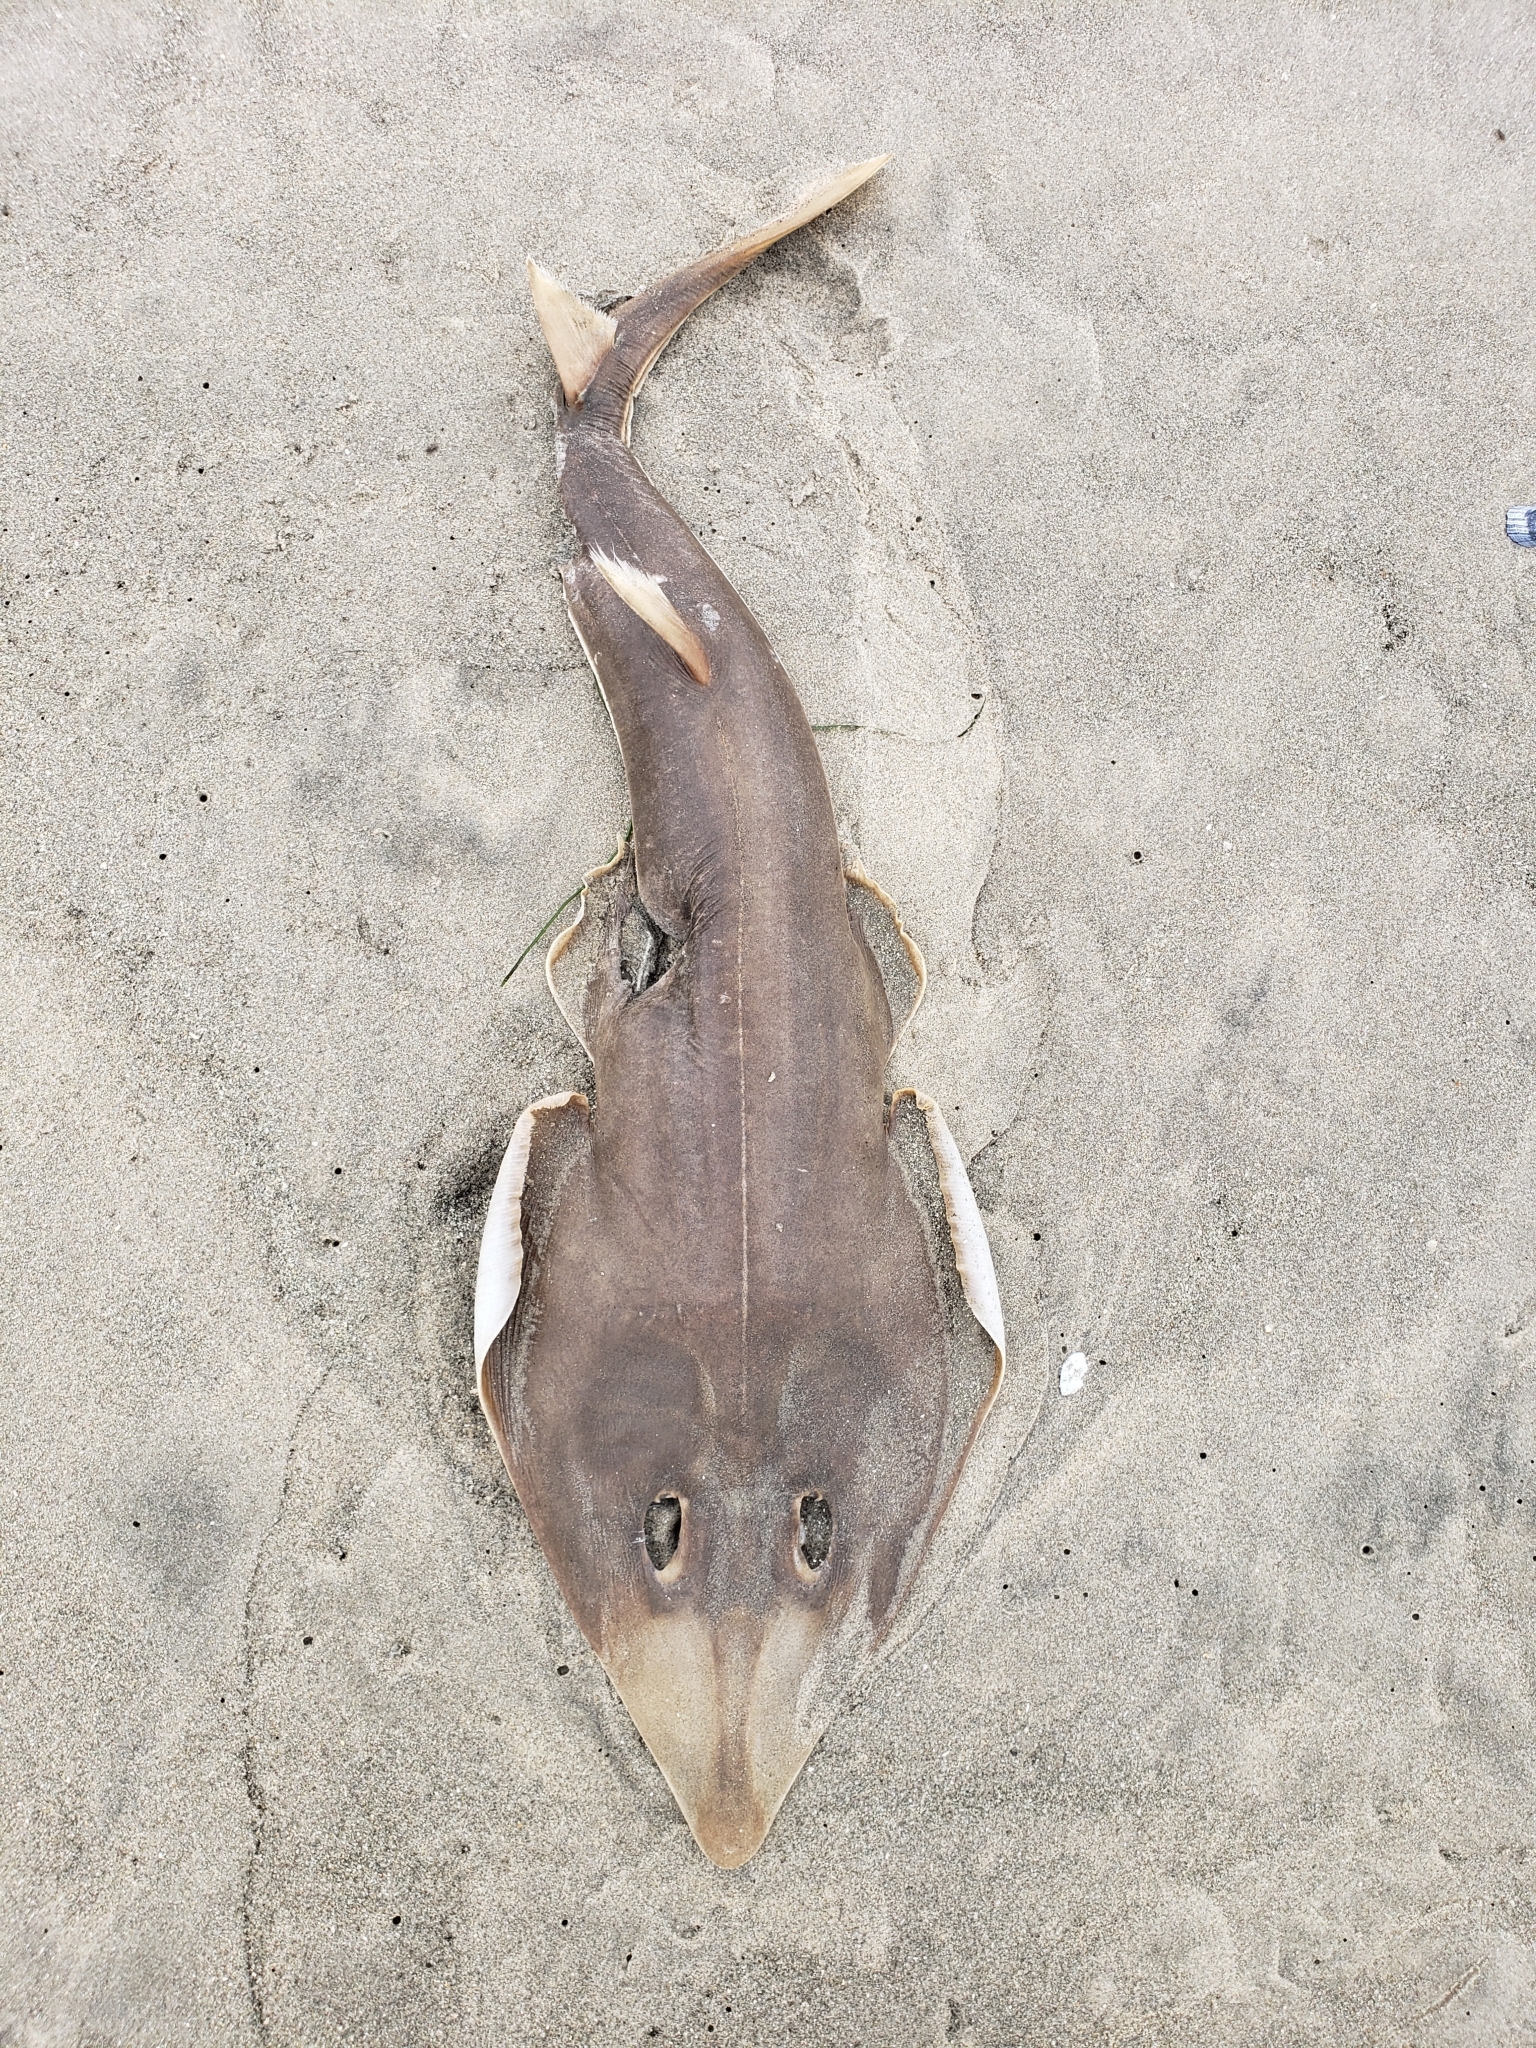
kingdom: Animalia
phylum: Chordata
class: Elasmobranchii
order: Rhinopristiformes
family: Rhinobatidae
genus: Pseudobatos
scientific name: Pseudobatos productus
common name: Shovelnose guitarfish
